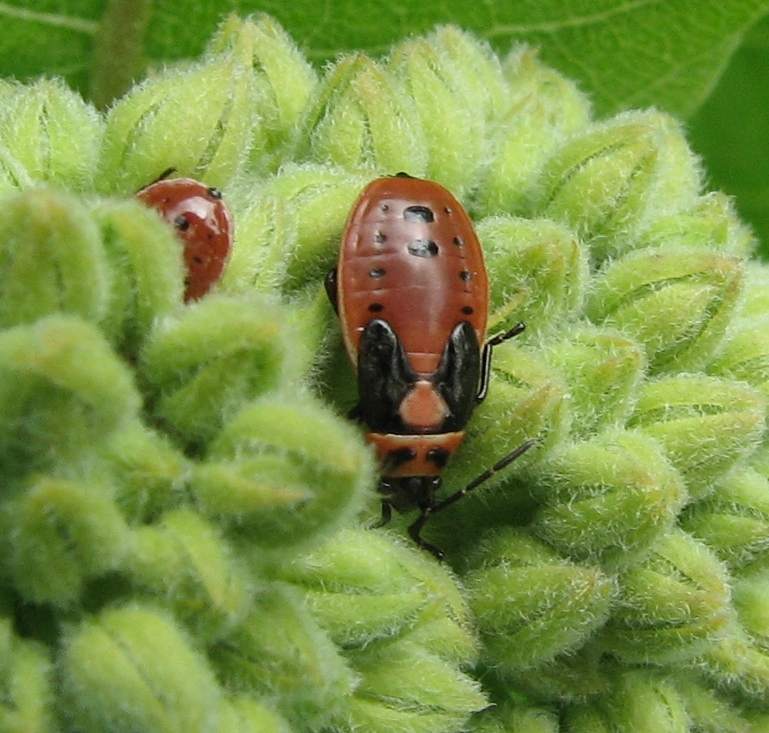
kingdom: Animalia
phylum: Arthropoda
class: Insecta
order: Hemiptera
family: Lygaeidae
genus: Lygaeus
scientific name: Lygaeus kalmii
